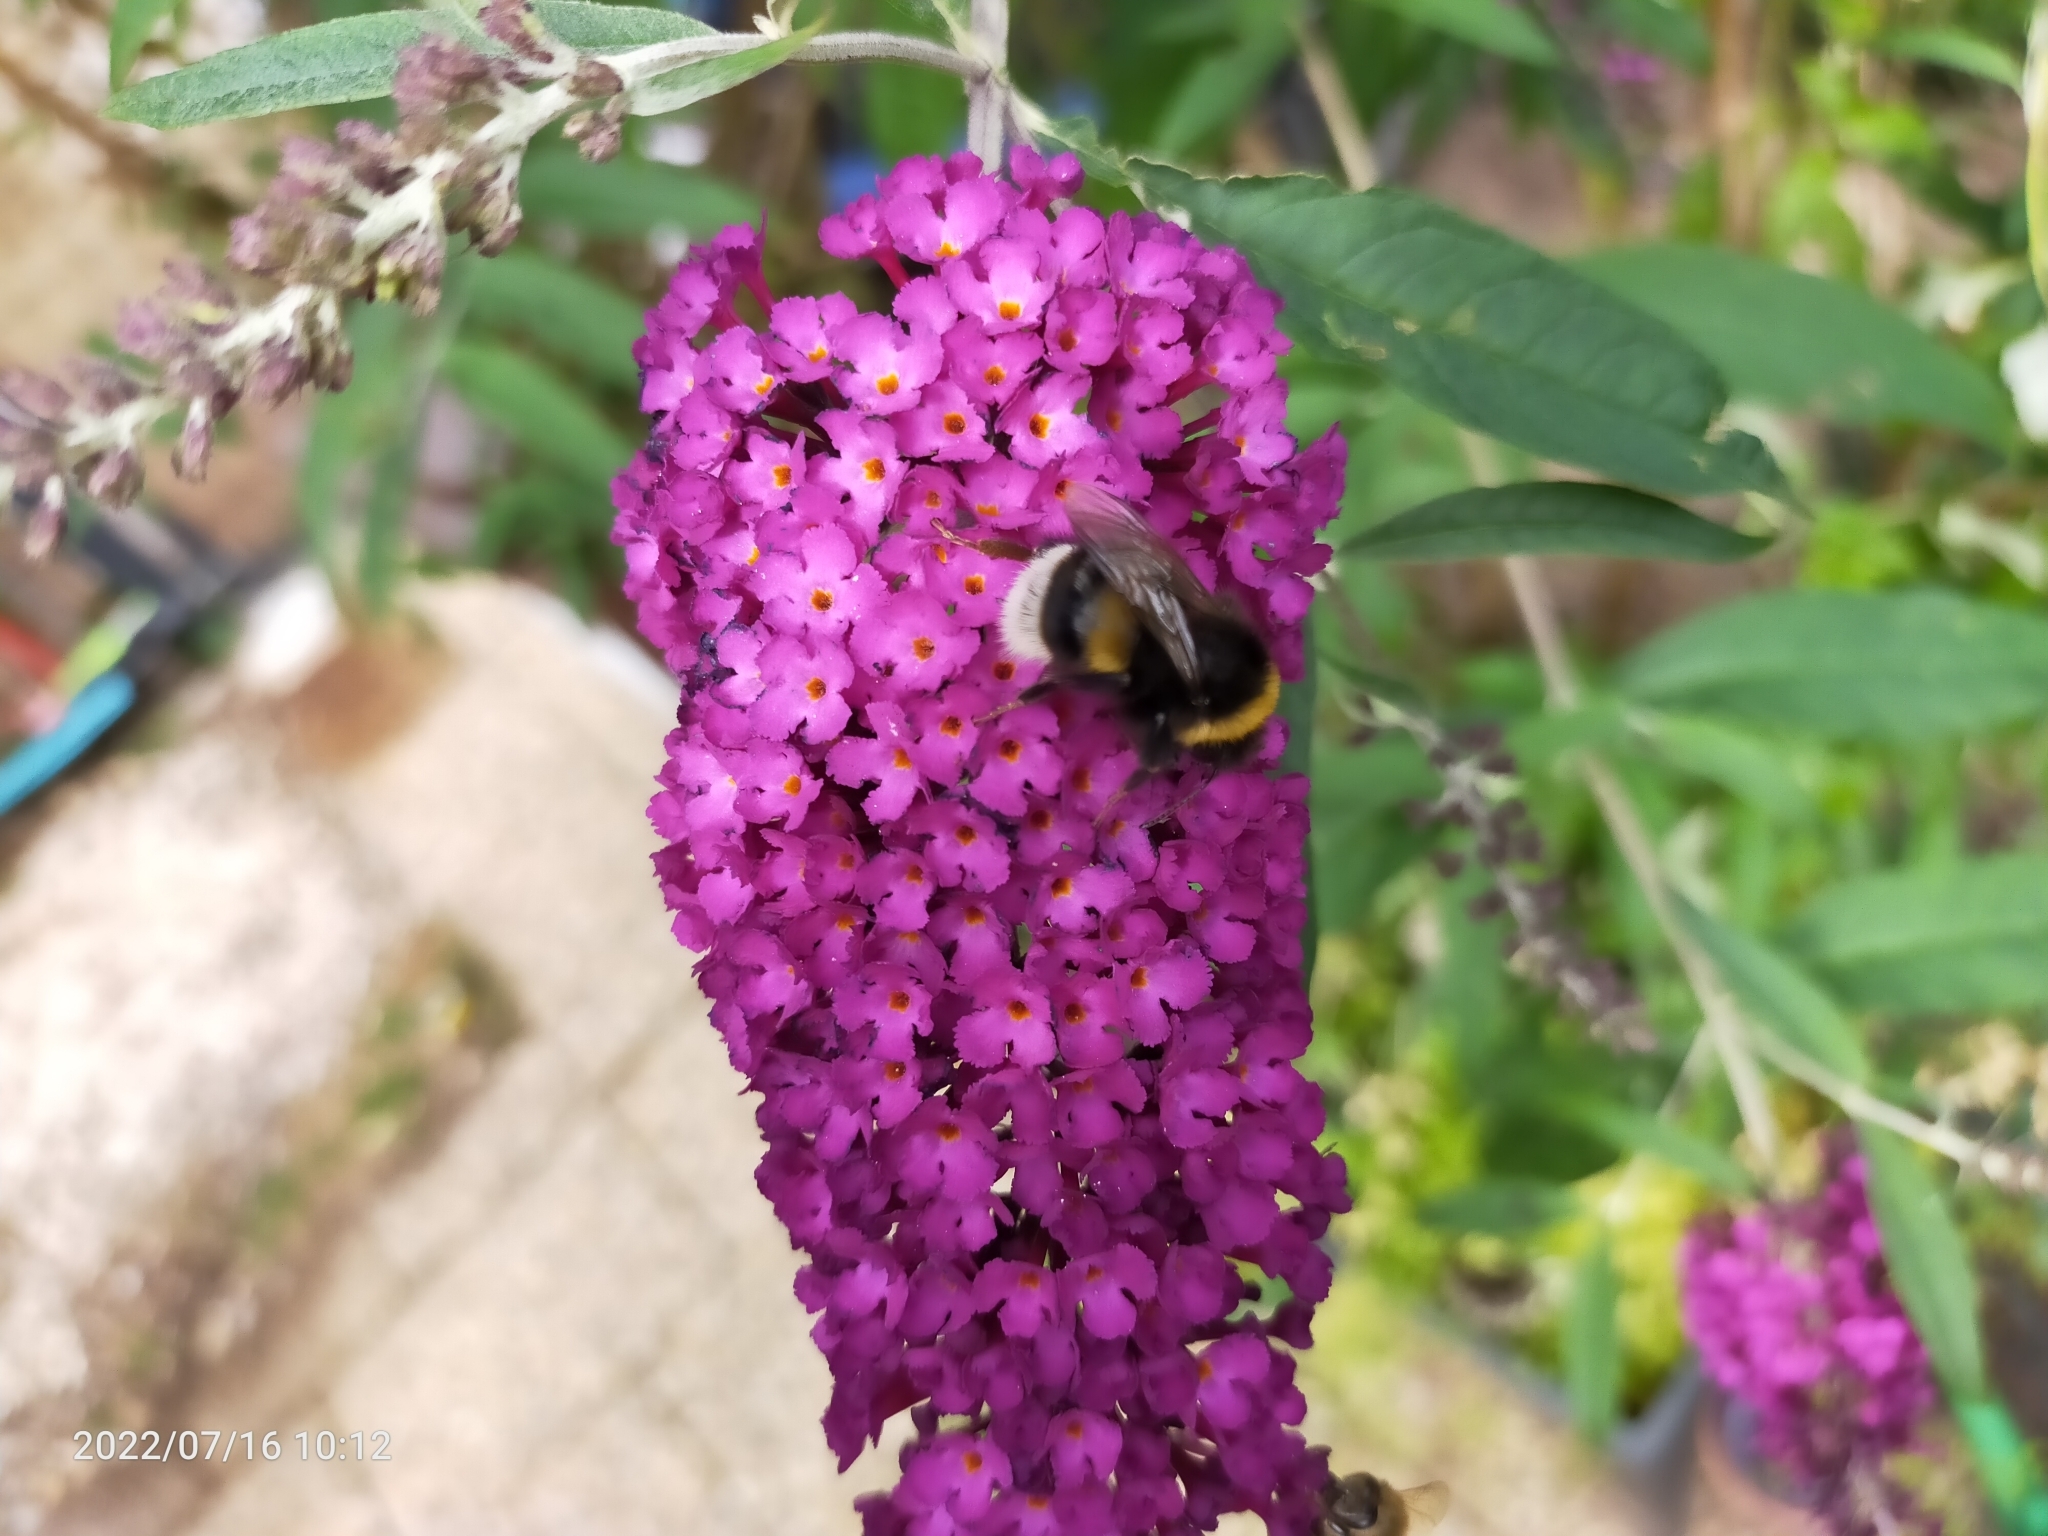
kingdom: Animalia
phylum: Arthropoda
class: Insecta
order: Hymenoptera
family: Apidae
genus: Bombus
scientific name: Bombus terrestris
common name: Buff-tailed bumblebee
